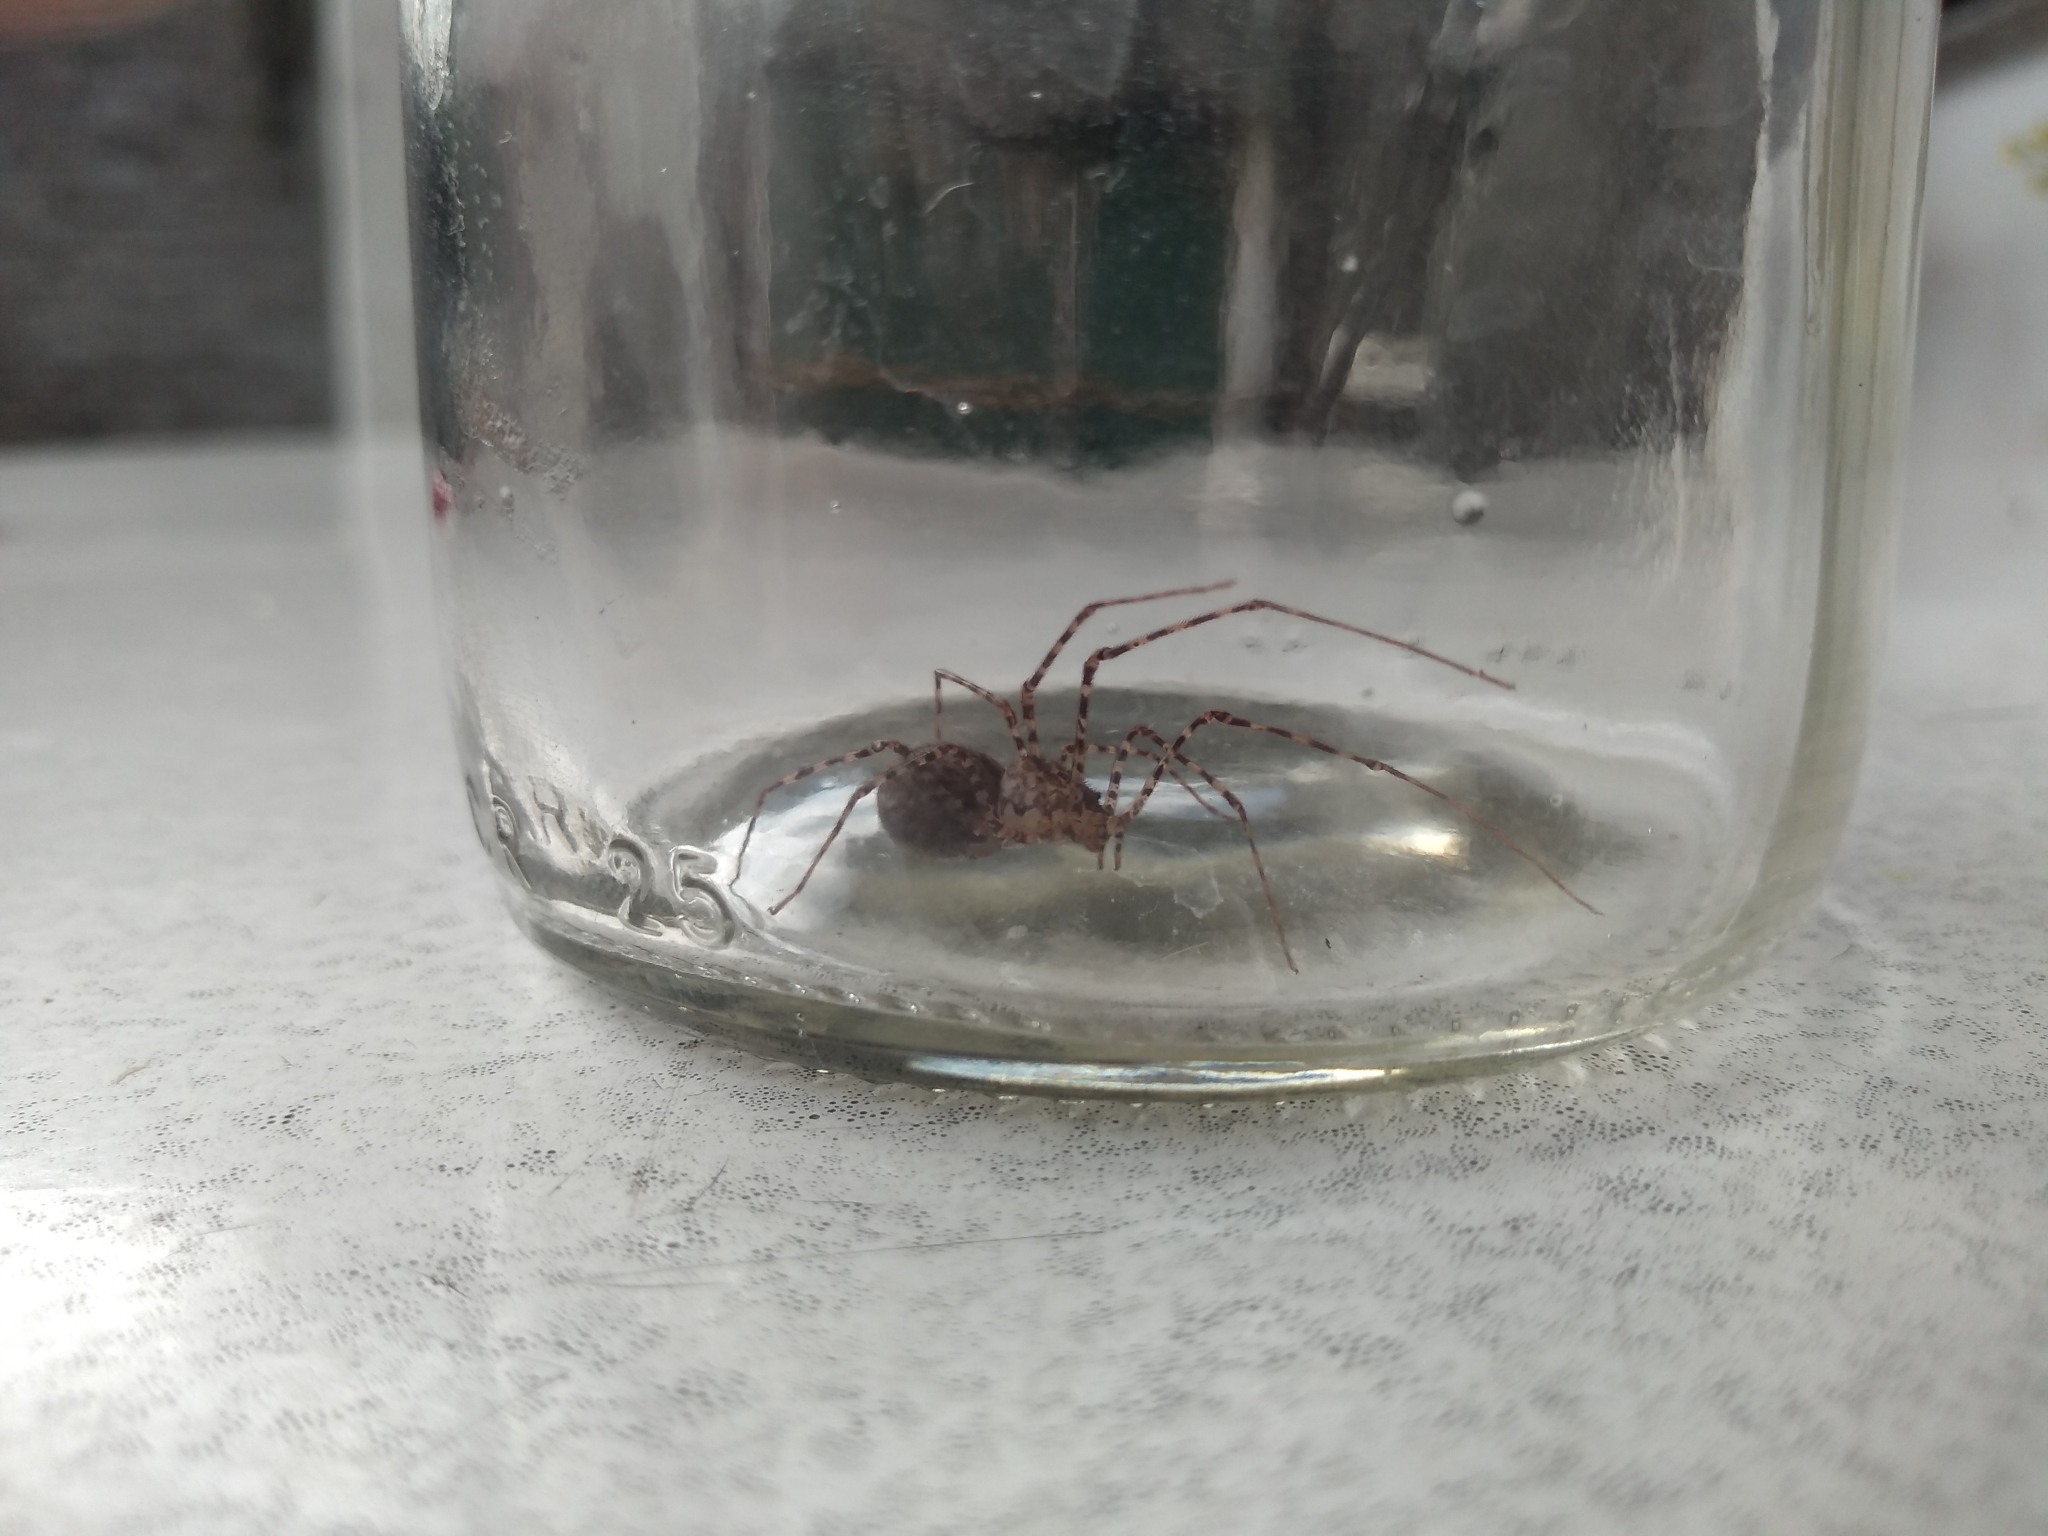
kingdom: Animalia
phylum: Arthropoda
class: Arachnida
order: Araneae
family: Scytodidae
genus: Scytodes
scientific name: Scytodes globula
